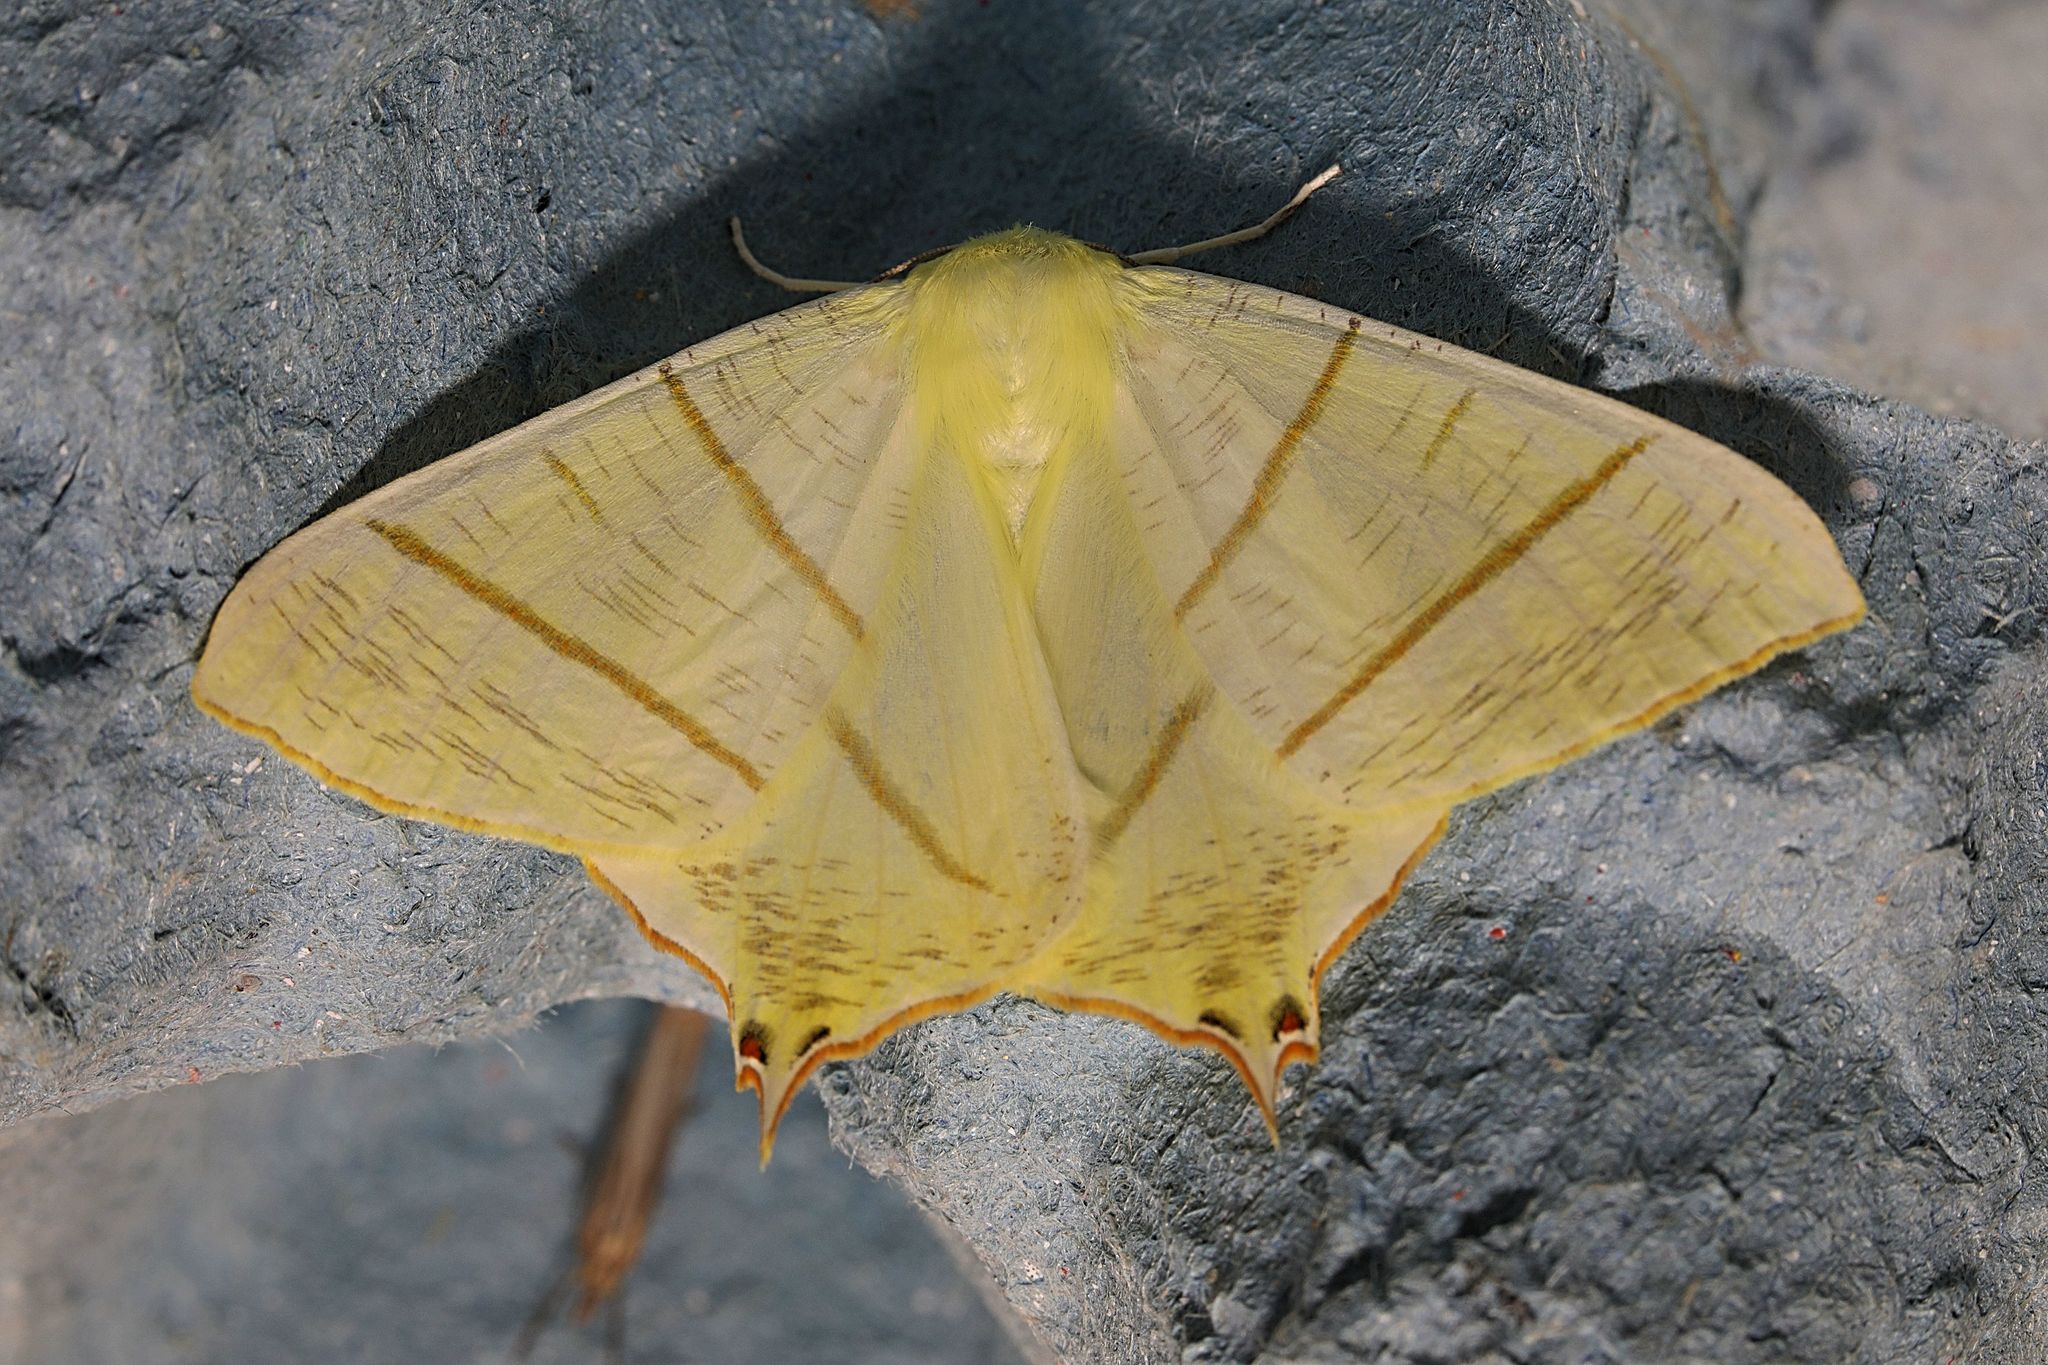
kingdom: Animalia
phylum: Arthropoda
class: Insecta
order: Lepidoptera
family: Geometridae
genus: Ourapteryx
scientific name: Ourapteryx sambucaria
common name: Swallow-tailed moth
